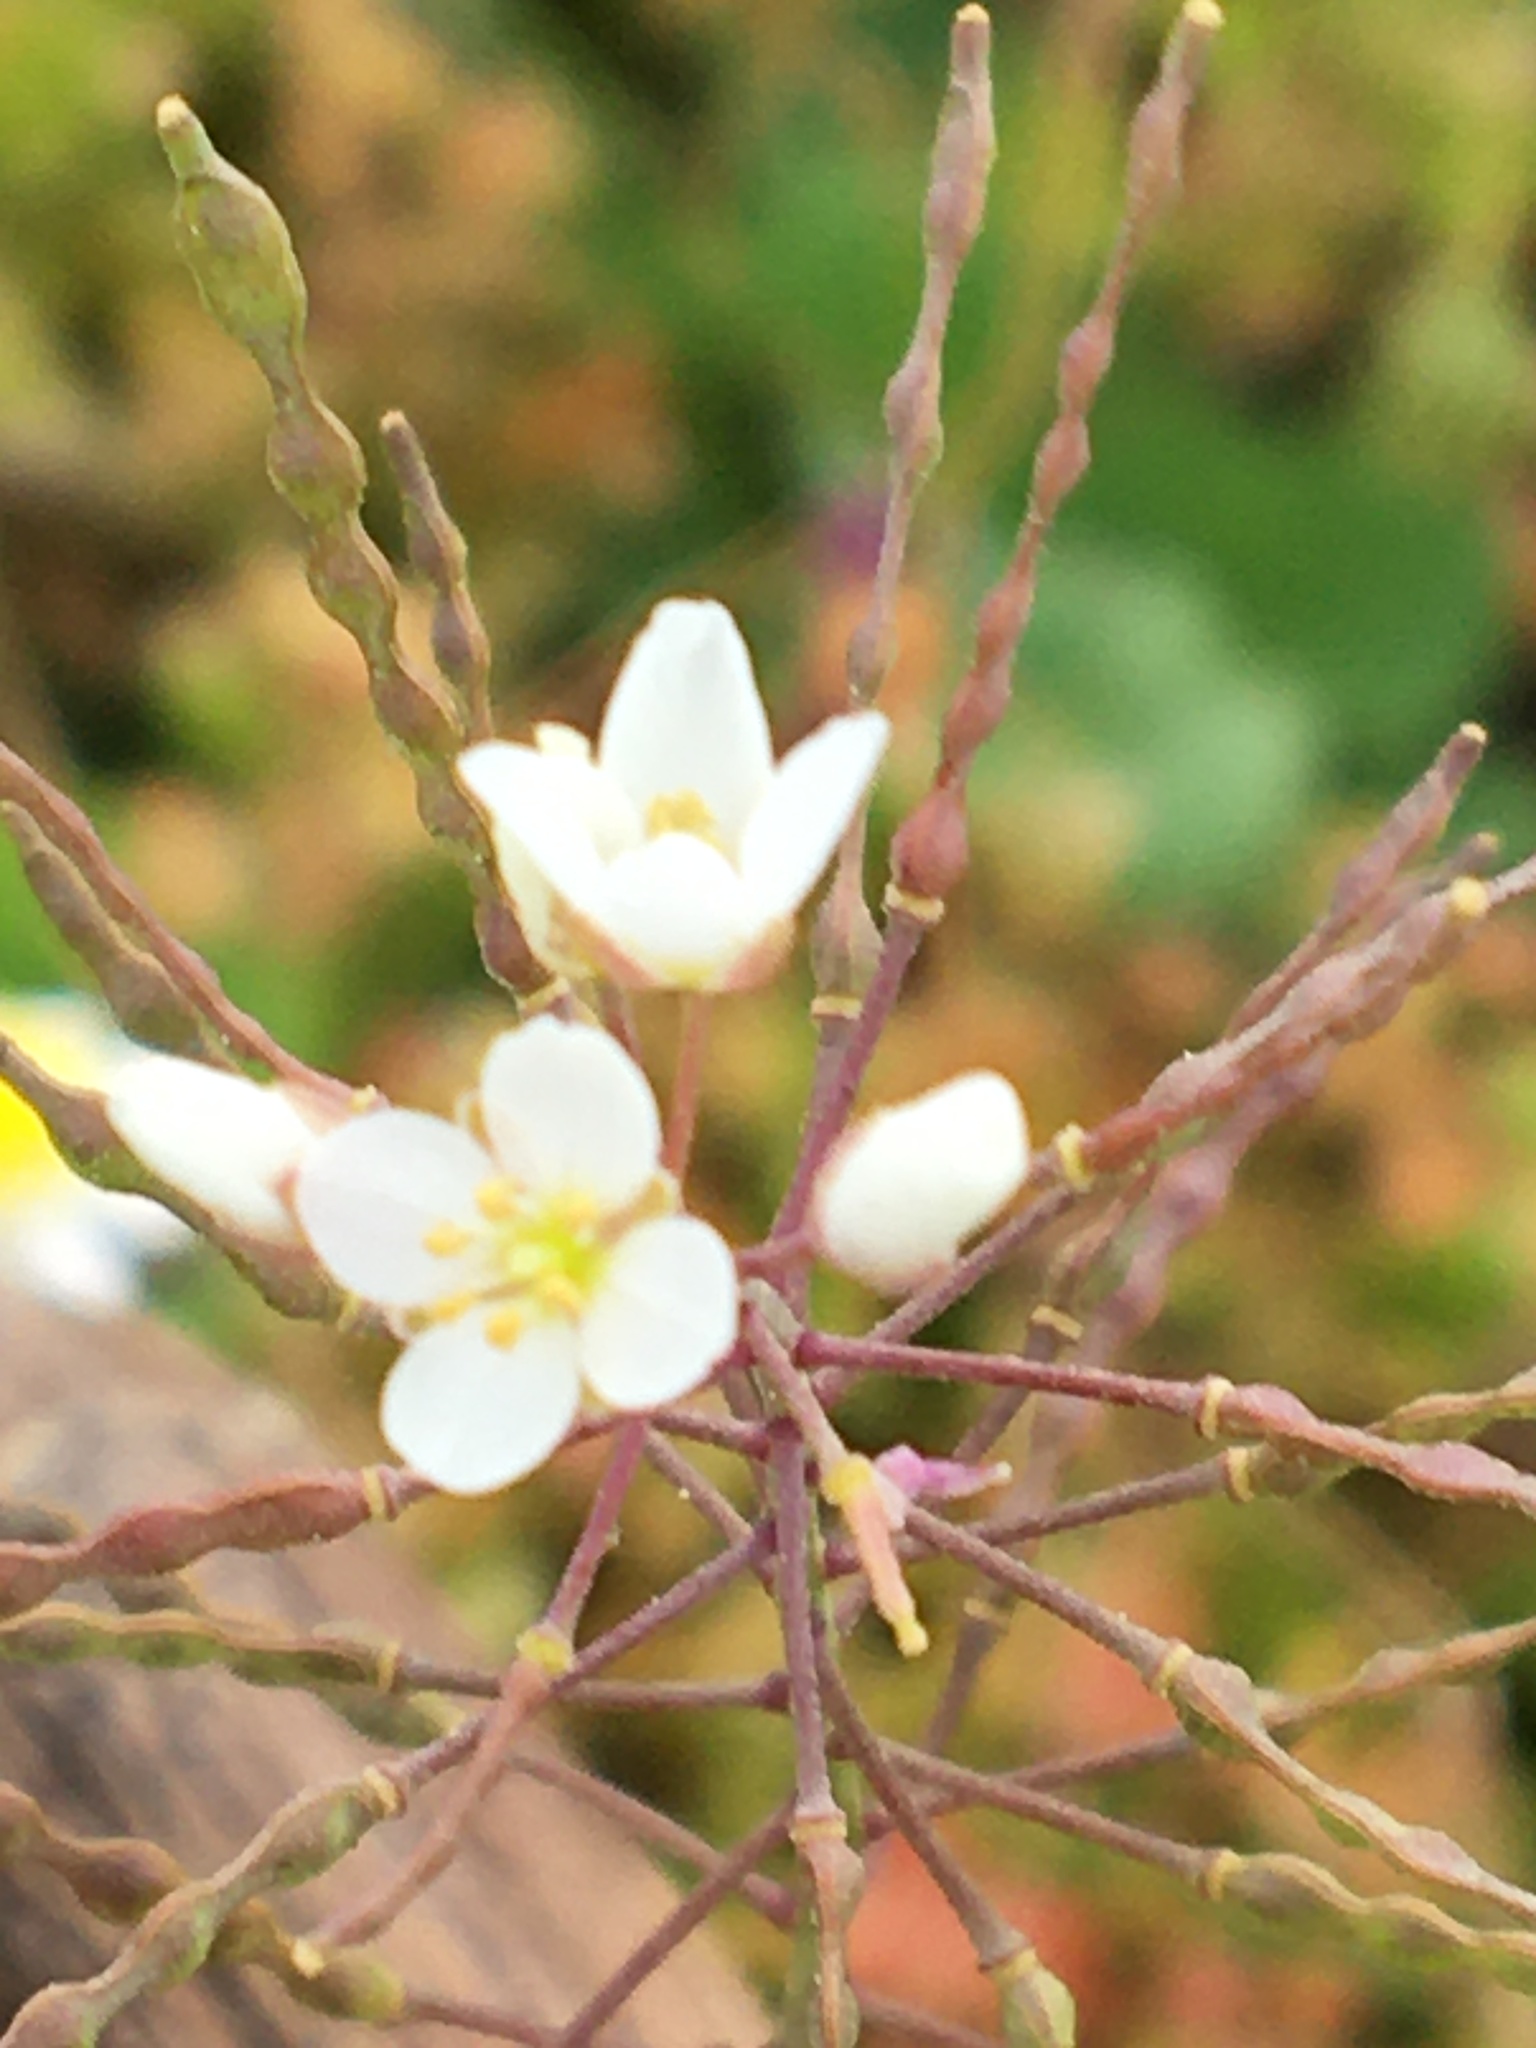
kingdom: Plantae
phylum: Tracheophyta
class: Magnoliopsida
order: Brassicales
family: Brassicaceae
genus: Heliophila
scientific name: Heliophila pusilla
